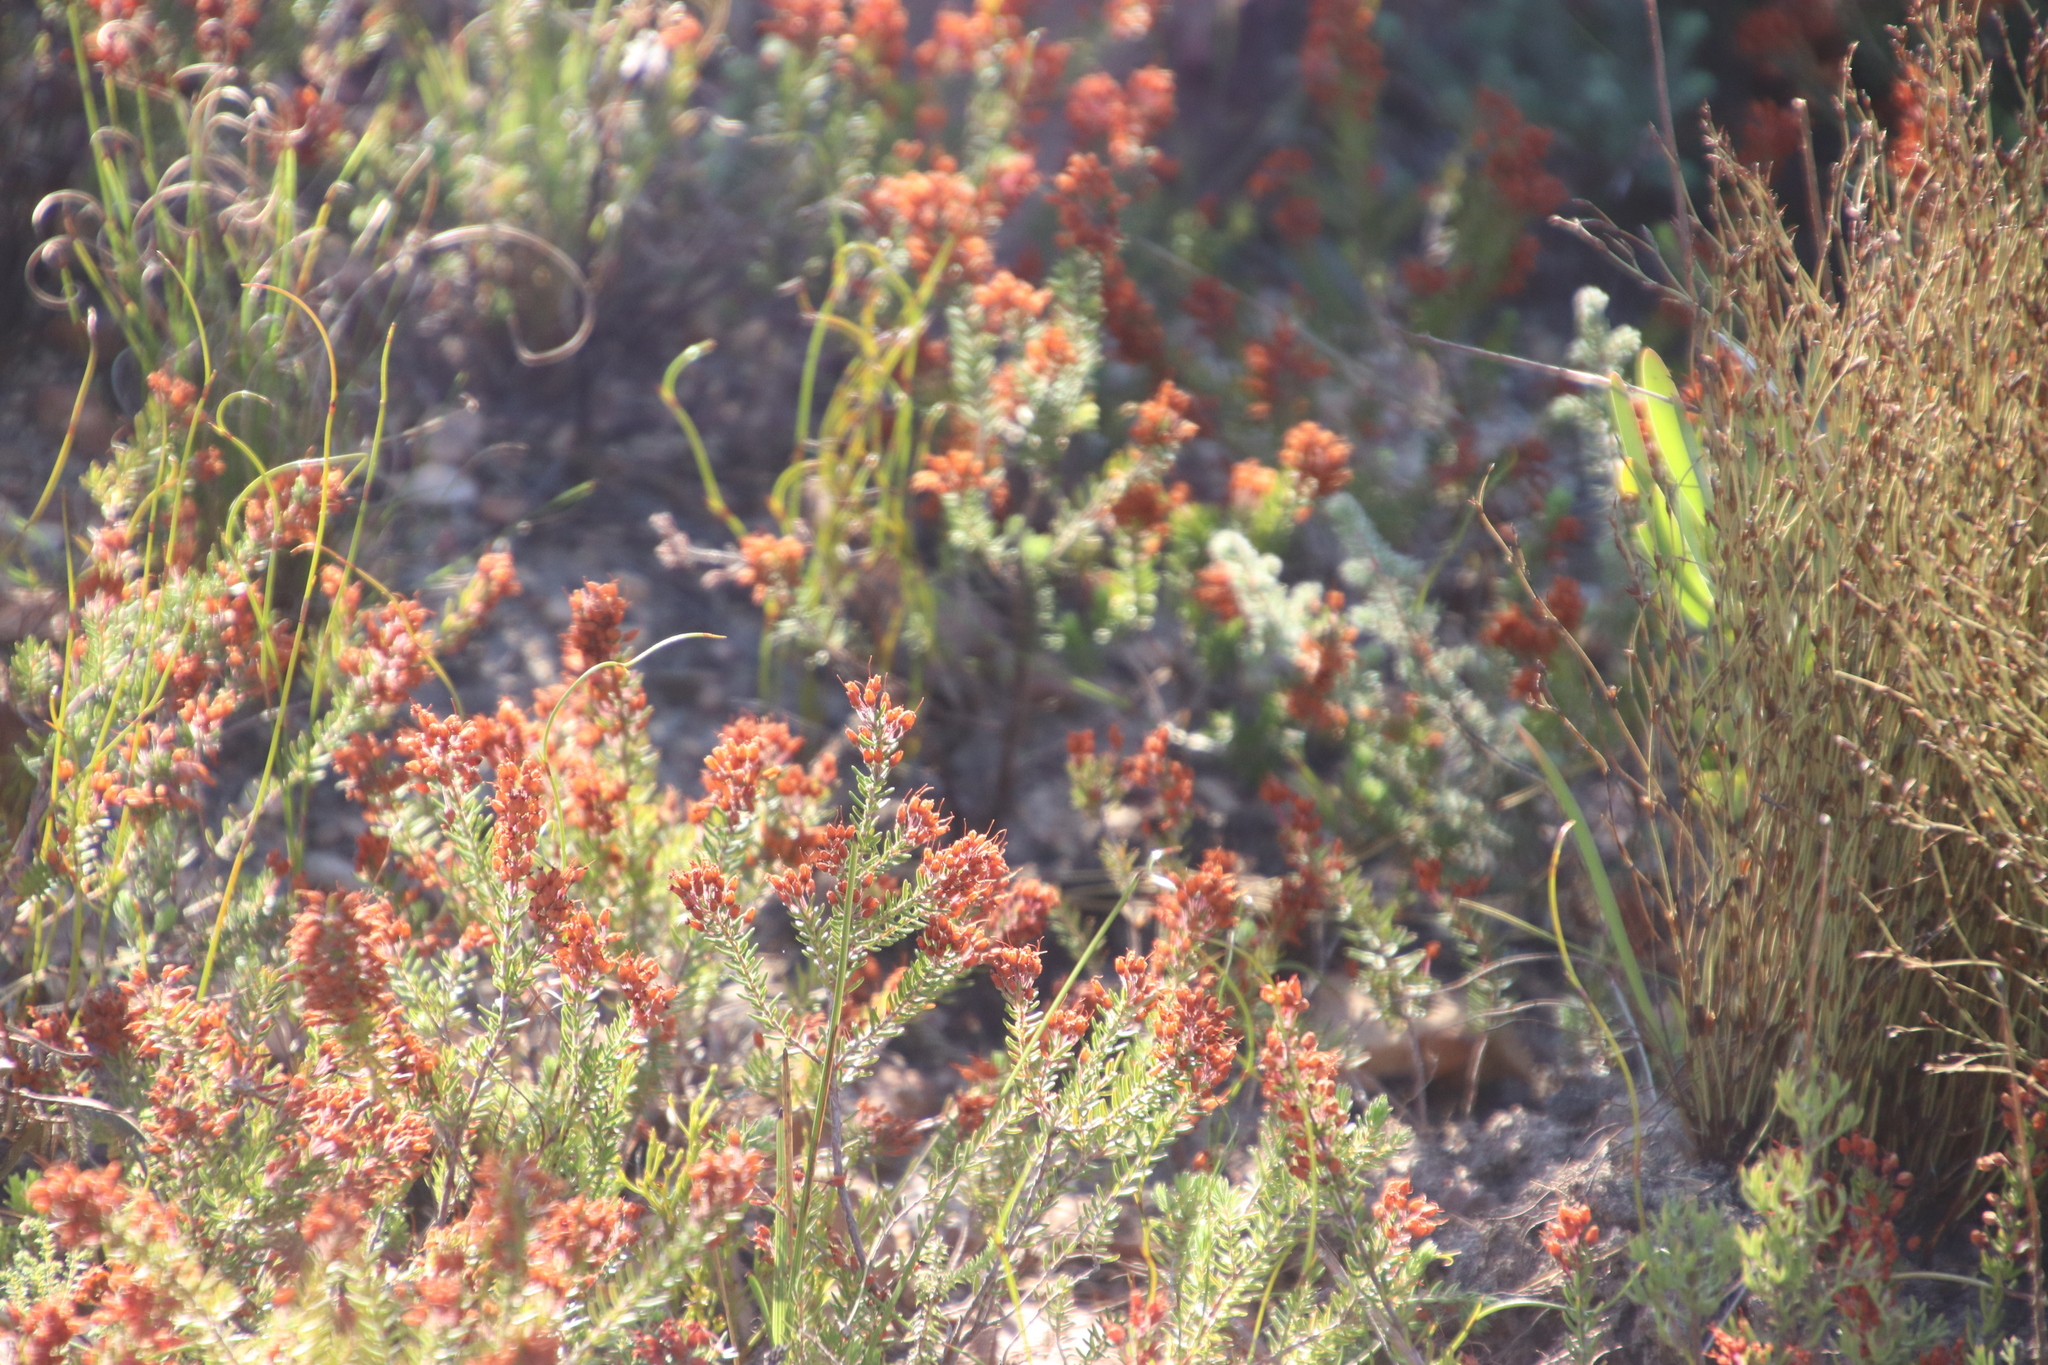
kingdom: Plantae
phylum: Tracheophyta
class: Magnoliopsida
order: Ericales
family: Ericaceae
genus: Erica
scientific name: Erica nudiflora
